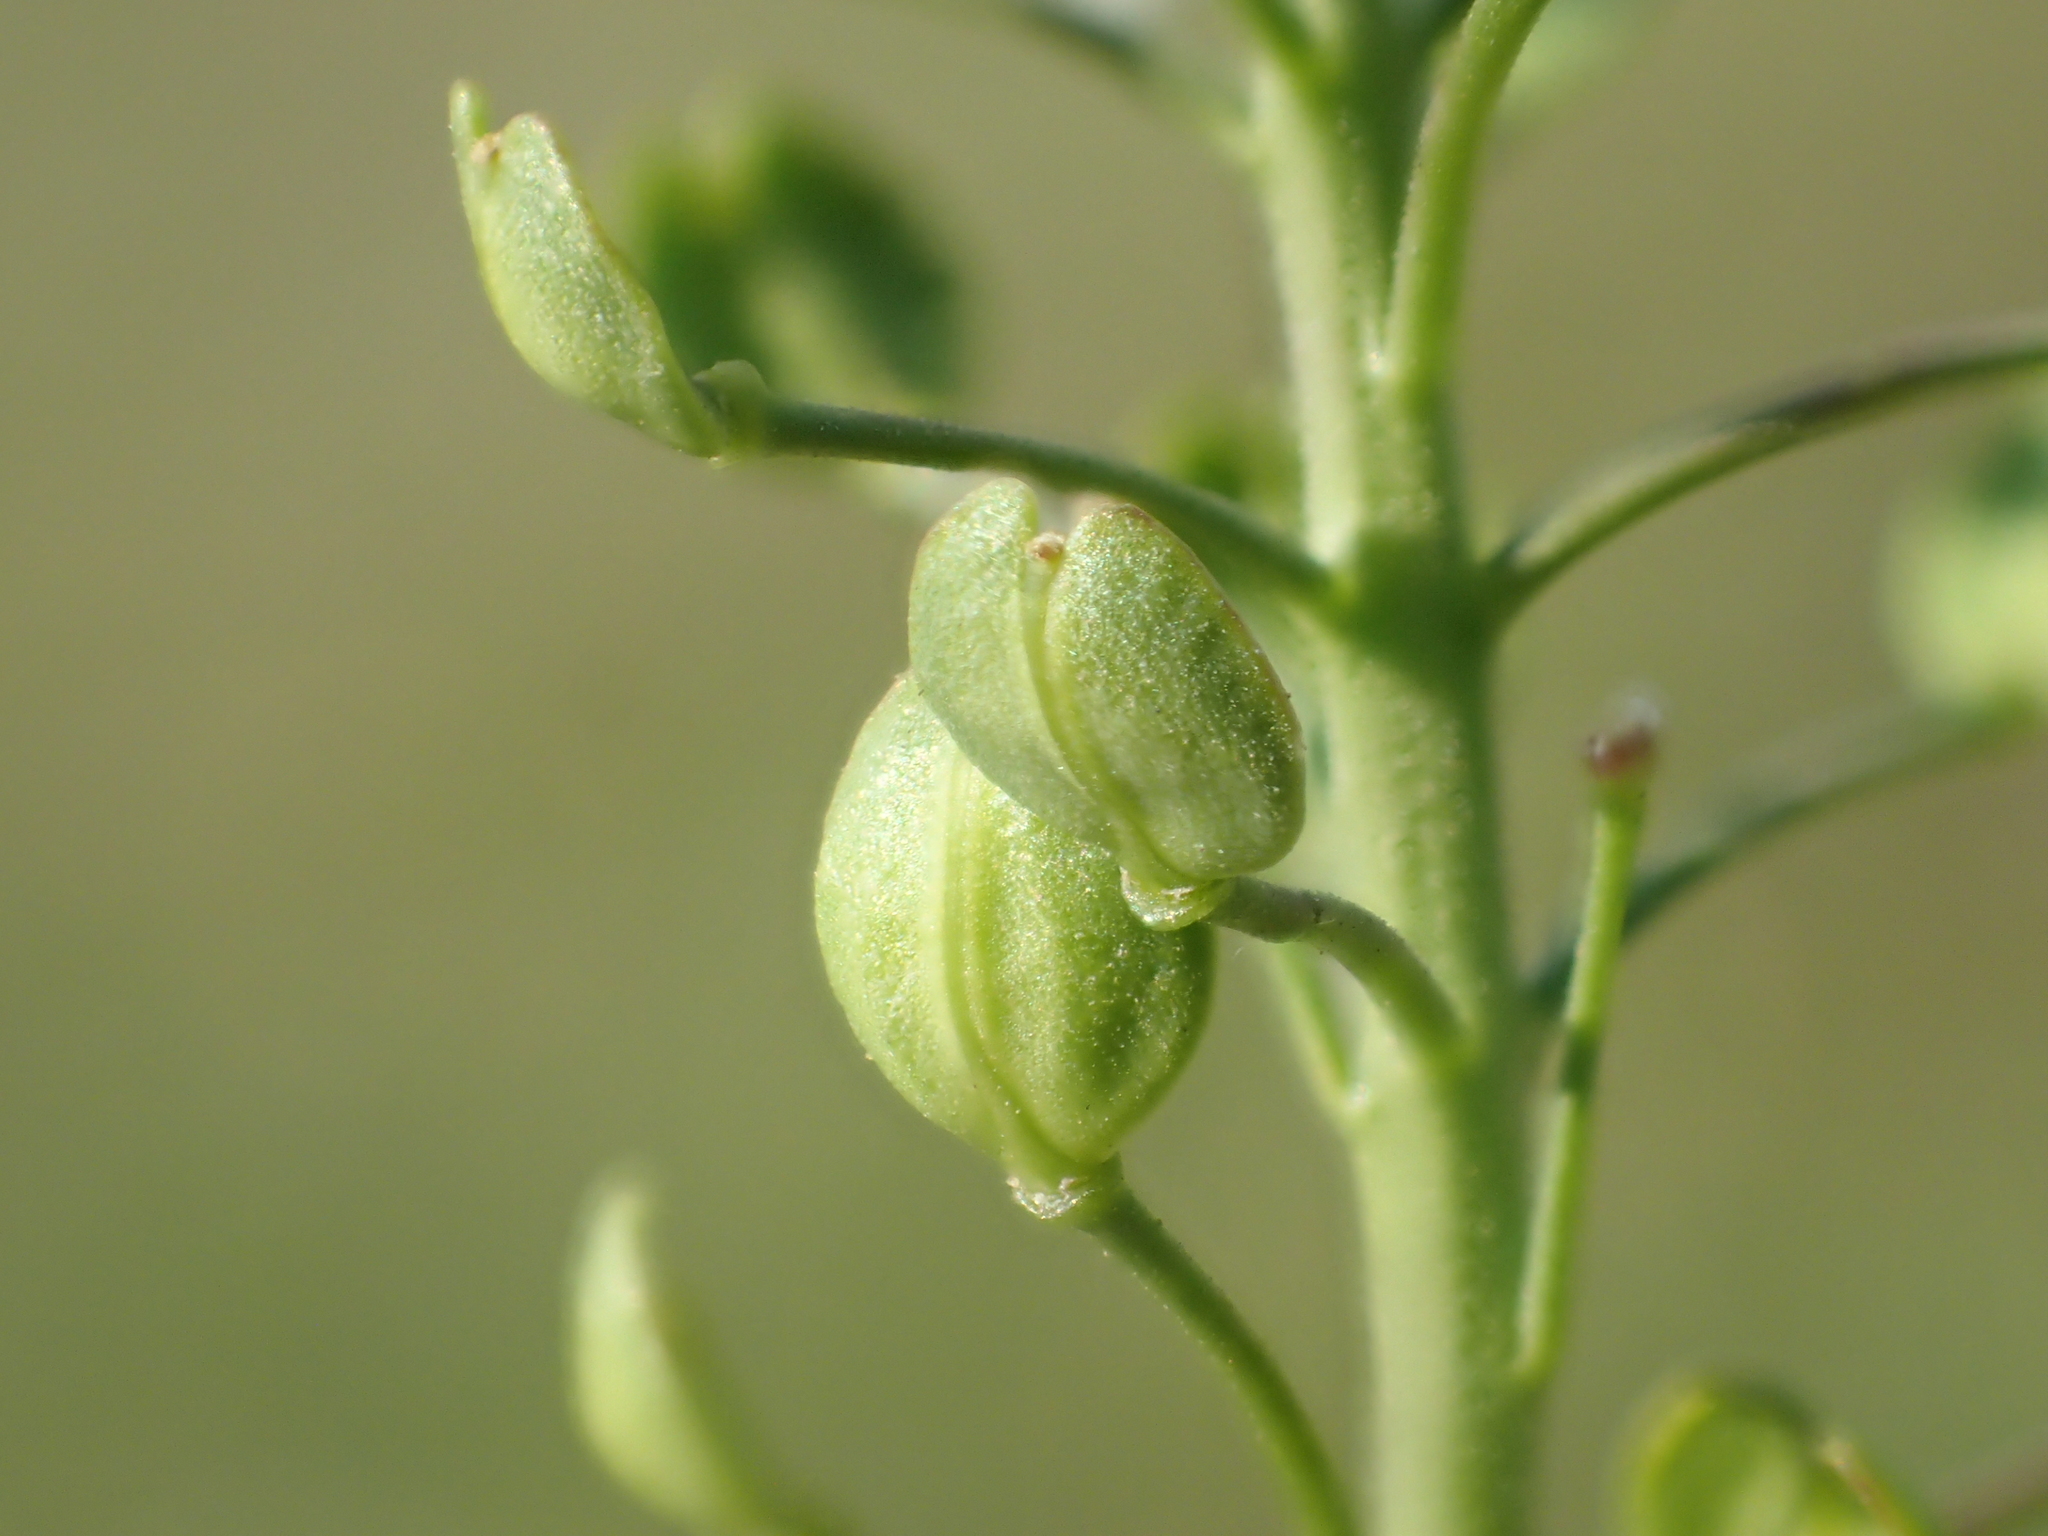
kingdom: Plantae
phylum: Tracheophyta
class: Magnoliopsida
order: Brassicales
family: Brassicaceae
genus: Lepidium
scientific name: Lepidium virginicum
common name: Least pepperwort
